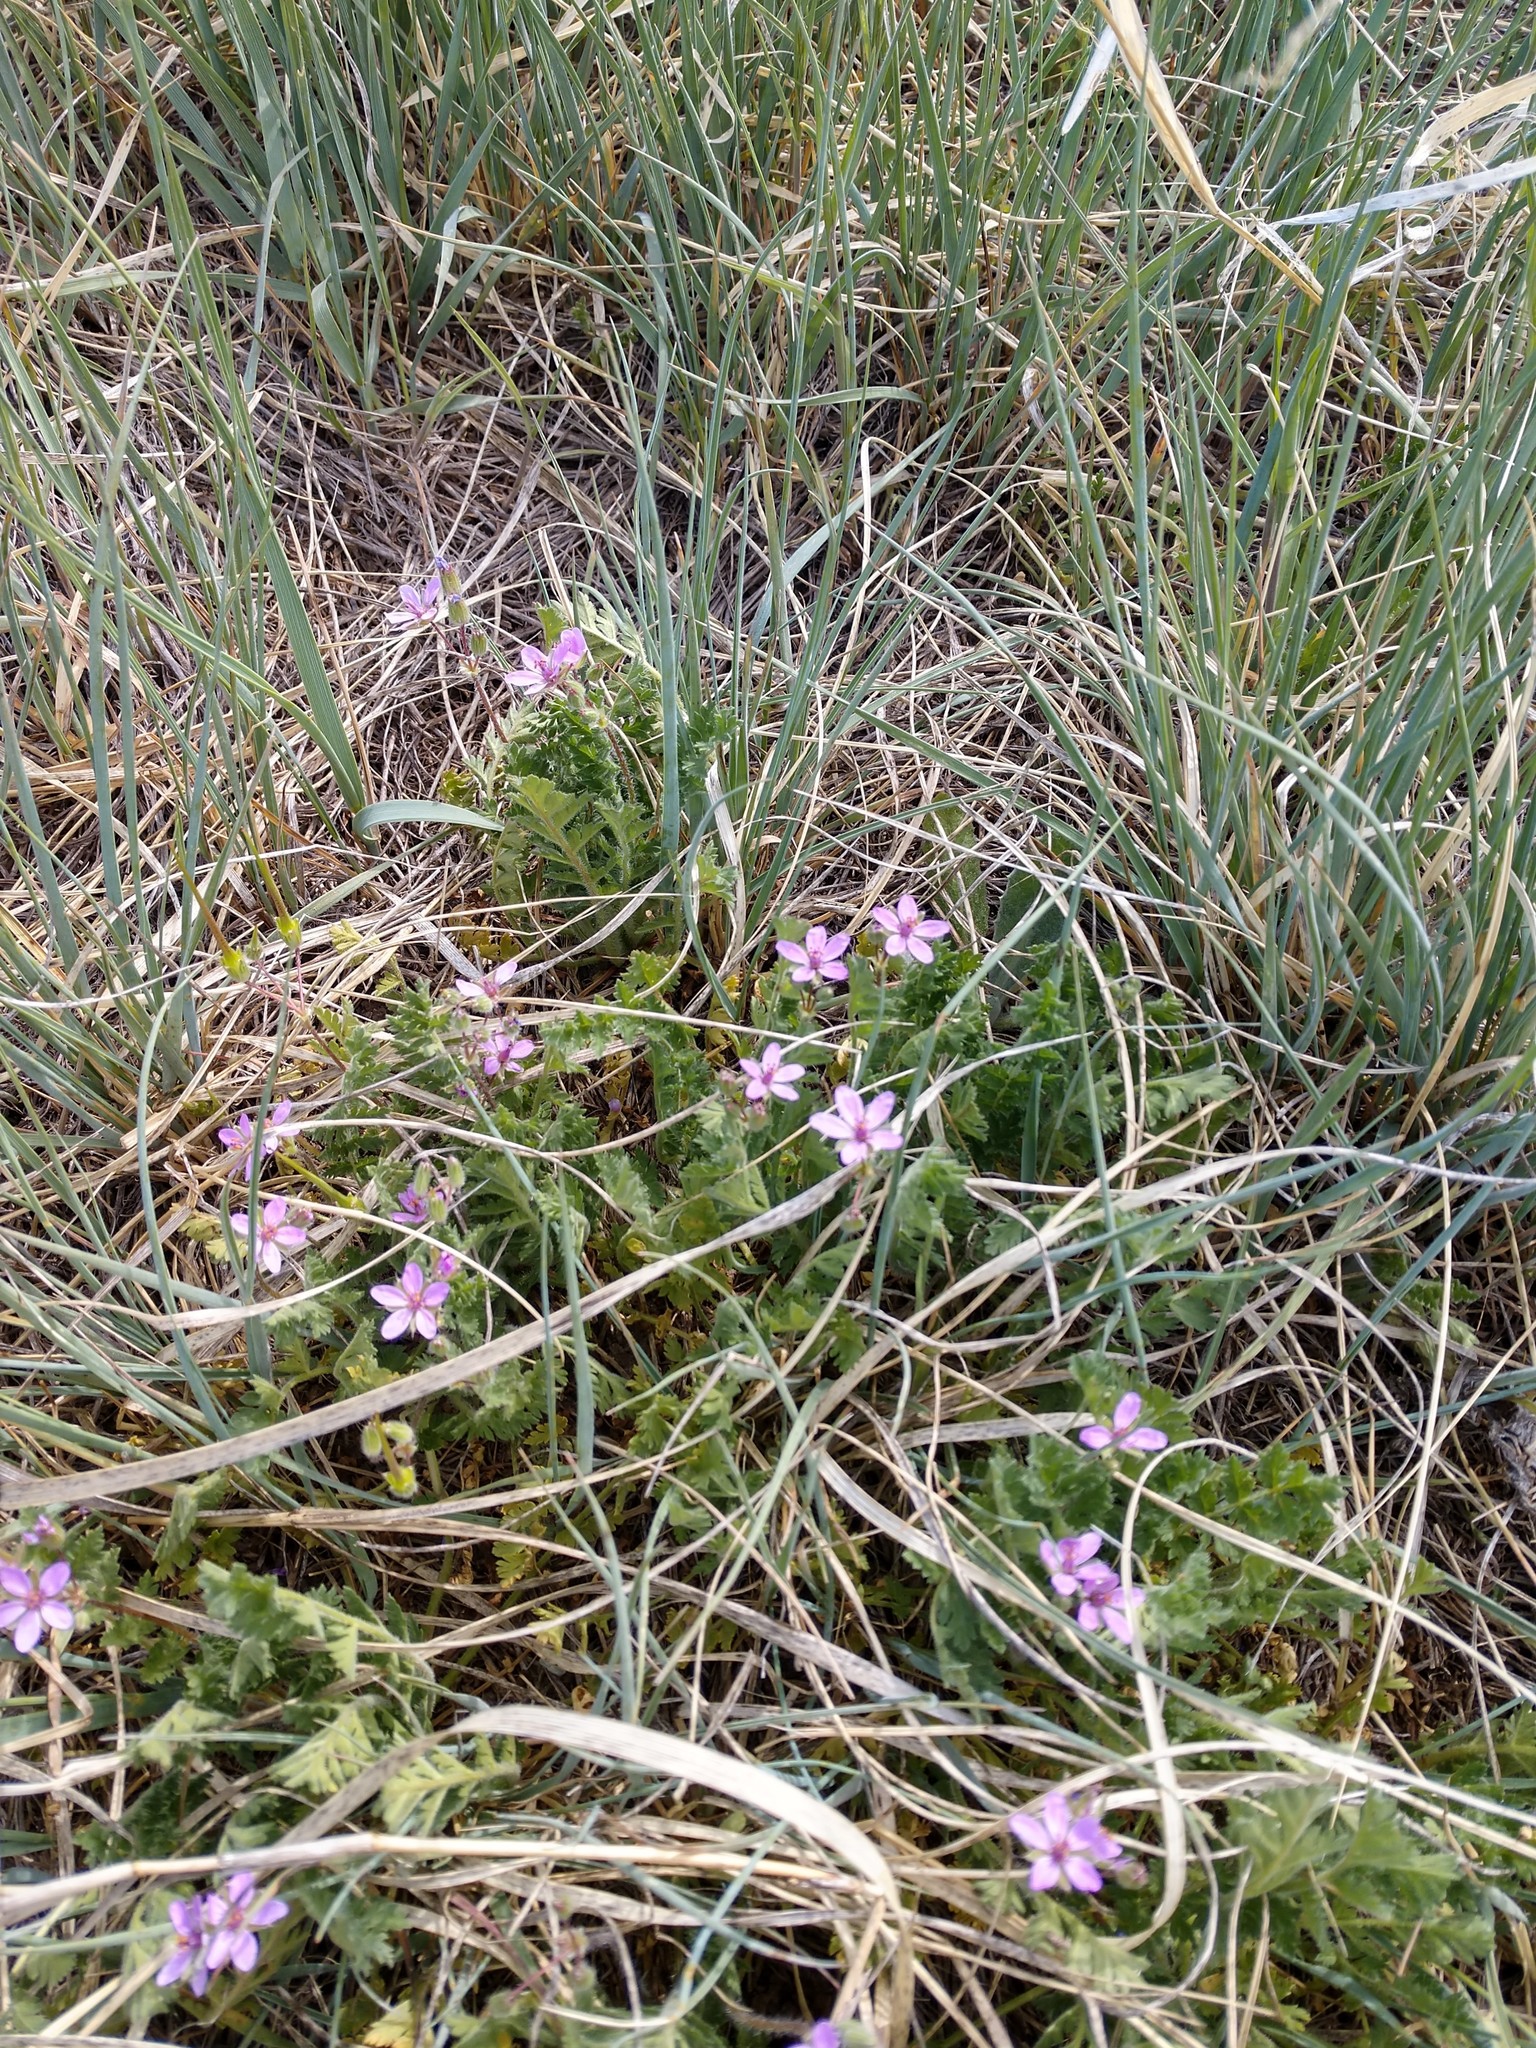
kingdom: Plantae
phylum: Tracheophyta
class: Magnoliopsida
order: Geraniales
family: Geraniaceae
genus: Erodium
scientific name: Erodium cicutarium
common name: Common stork's-bill
